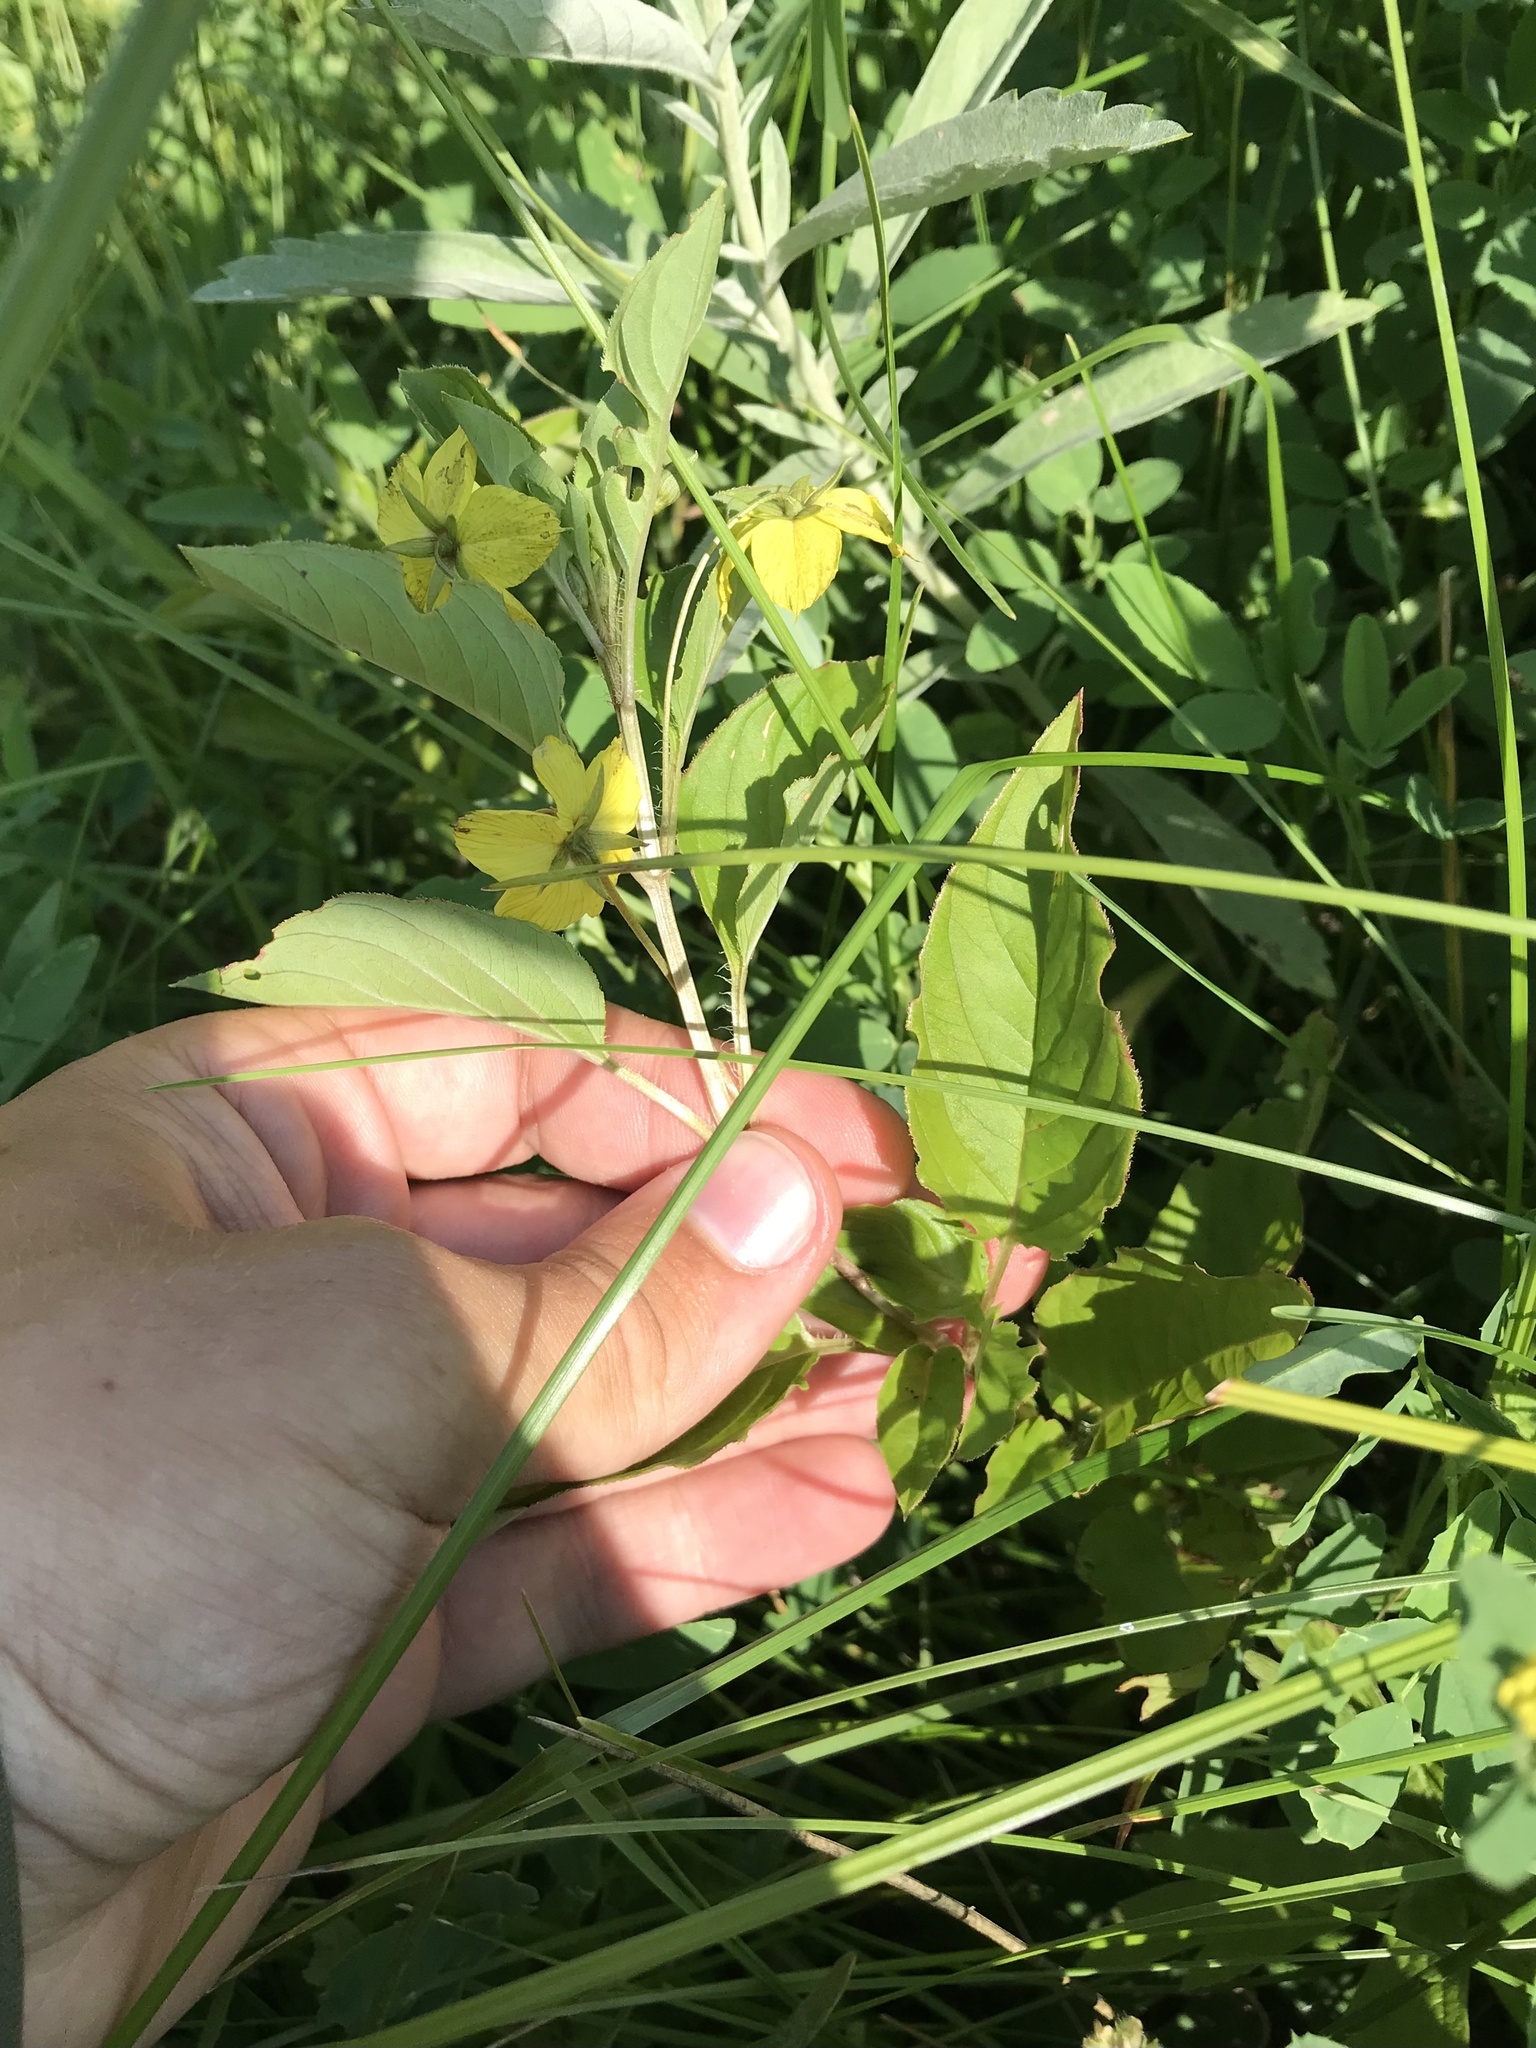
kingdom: Plantae
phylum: Tracheophyta
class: Magnoliopsida
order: Ericales
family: Primulaceae
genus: Lysimachia
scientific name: Lysimachia ciliata
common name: Fringed loosestrife
